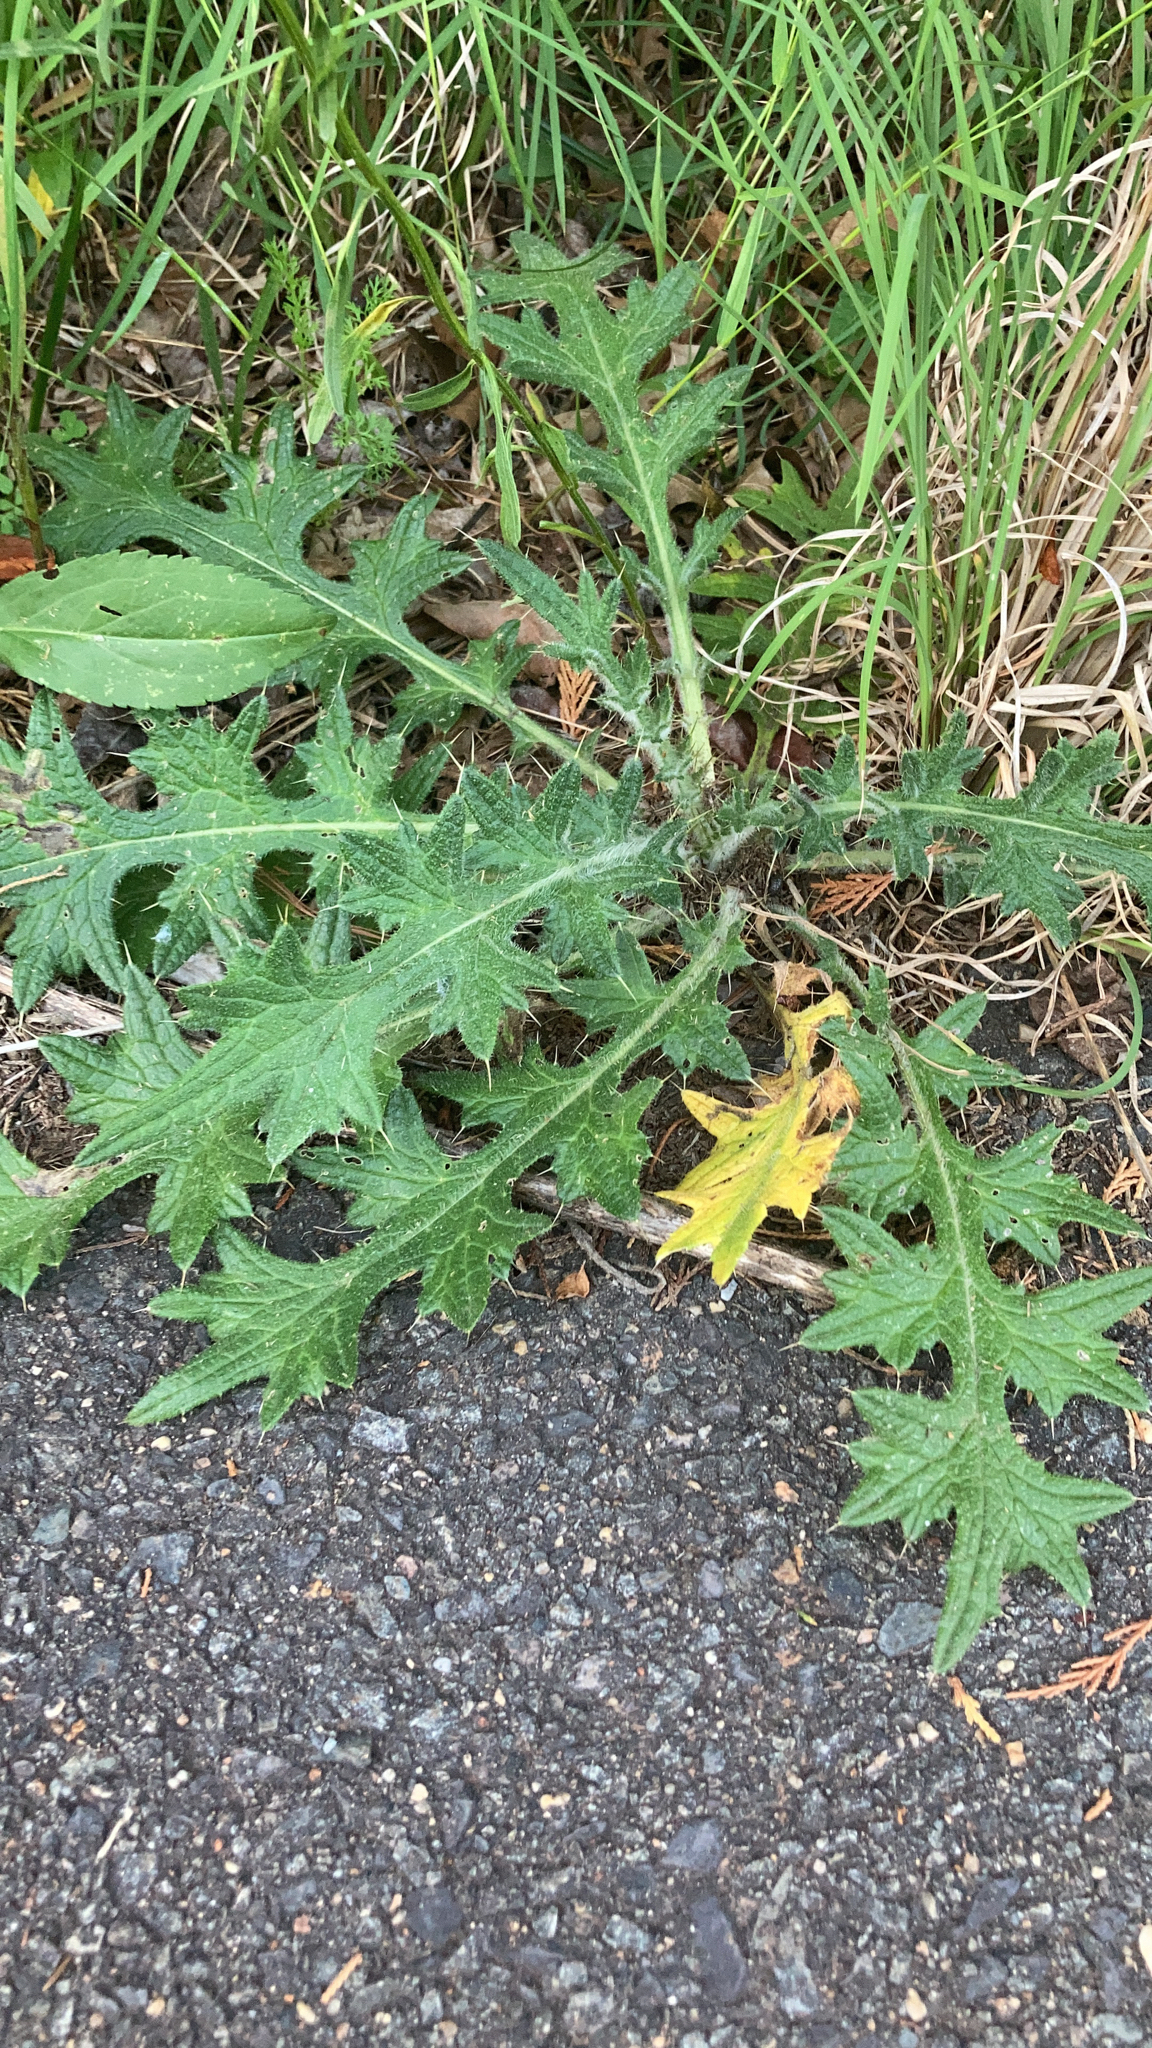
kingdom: Plantae
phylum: Tracheophyta
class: Magnoliopsida
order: Asterales
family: Asteraceae
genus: Cirsium
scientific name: Cirsium vulgare
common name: Bull thistle
